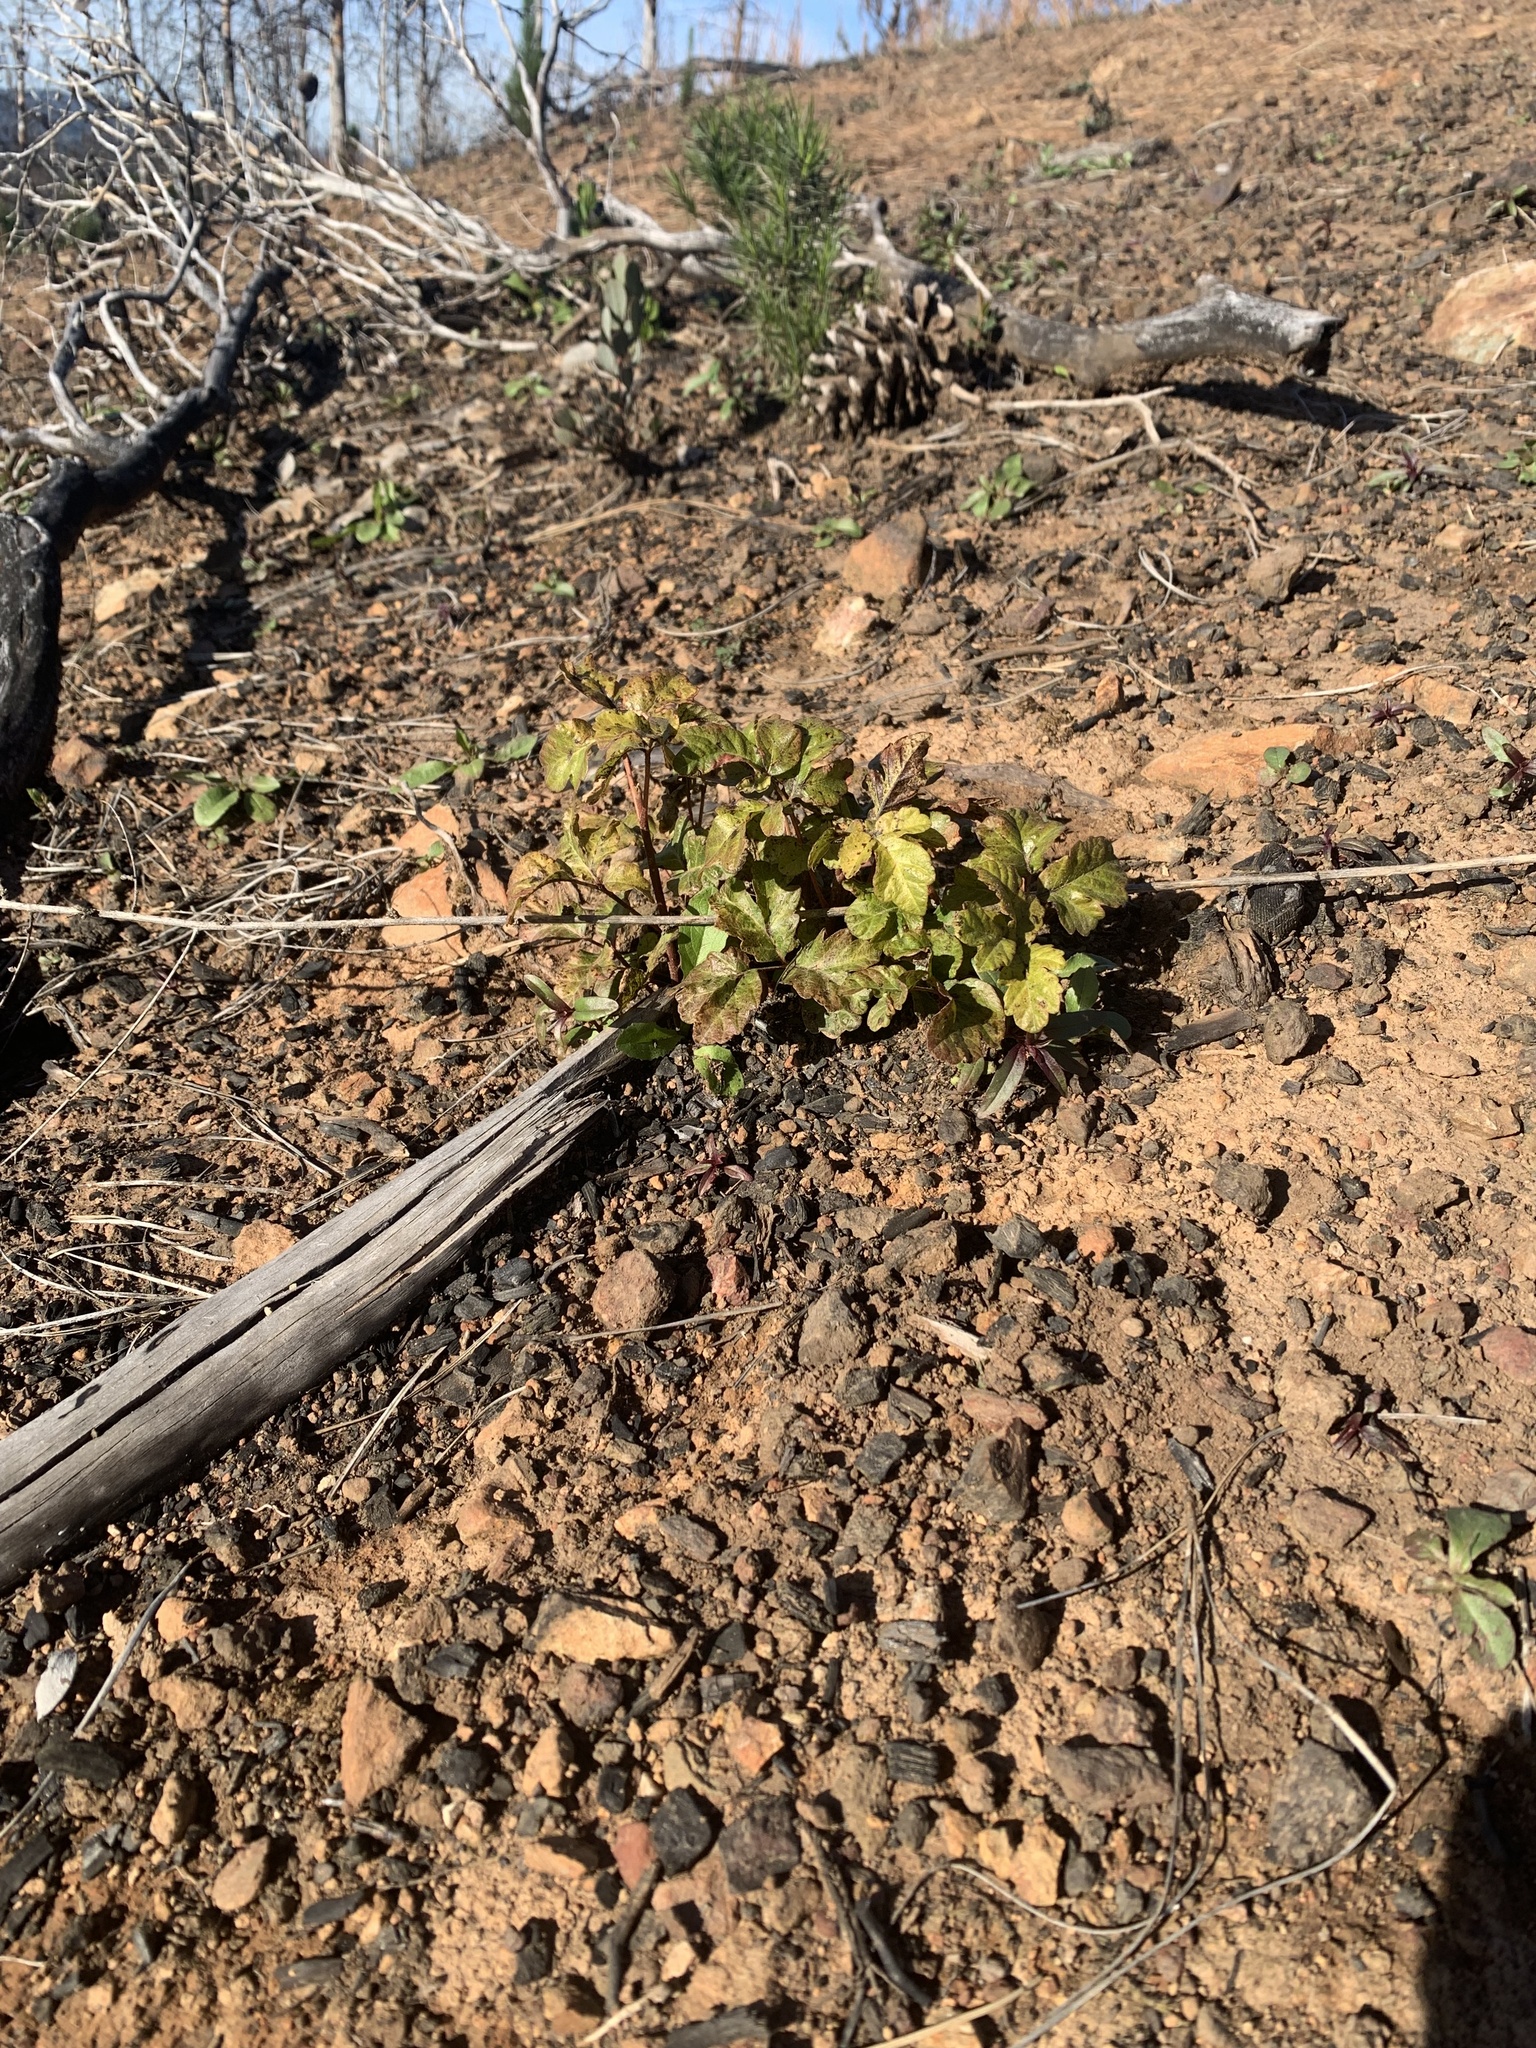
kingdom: Plantae
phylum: Tracheophyta
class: Magnoliopsida
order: Sapindales
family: Anacardiaceae
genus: Toxicodendron
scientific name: Toxicodendron diversilobum
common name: Pacific poison-oak
